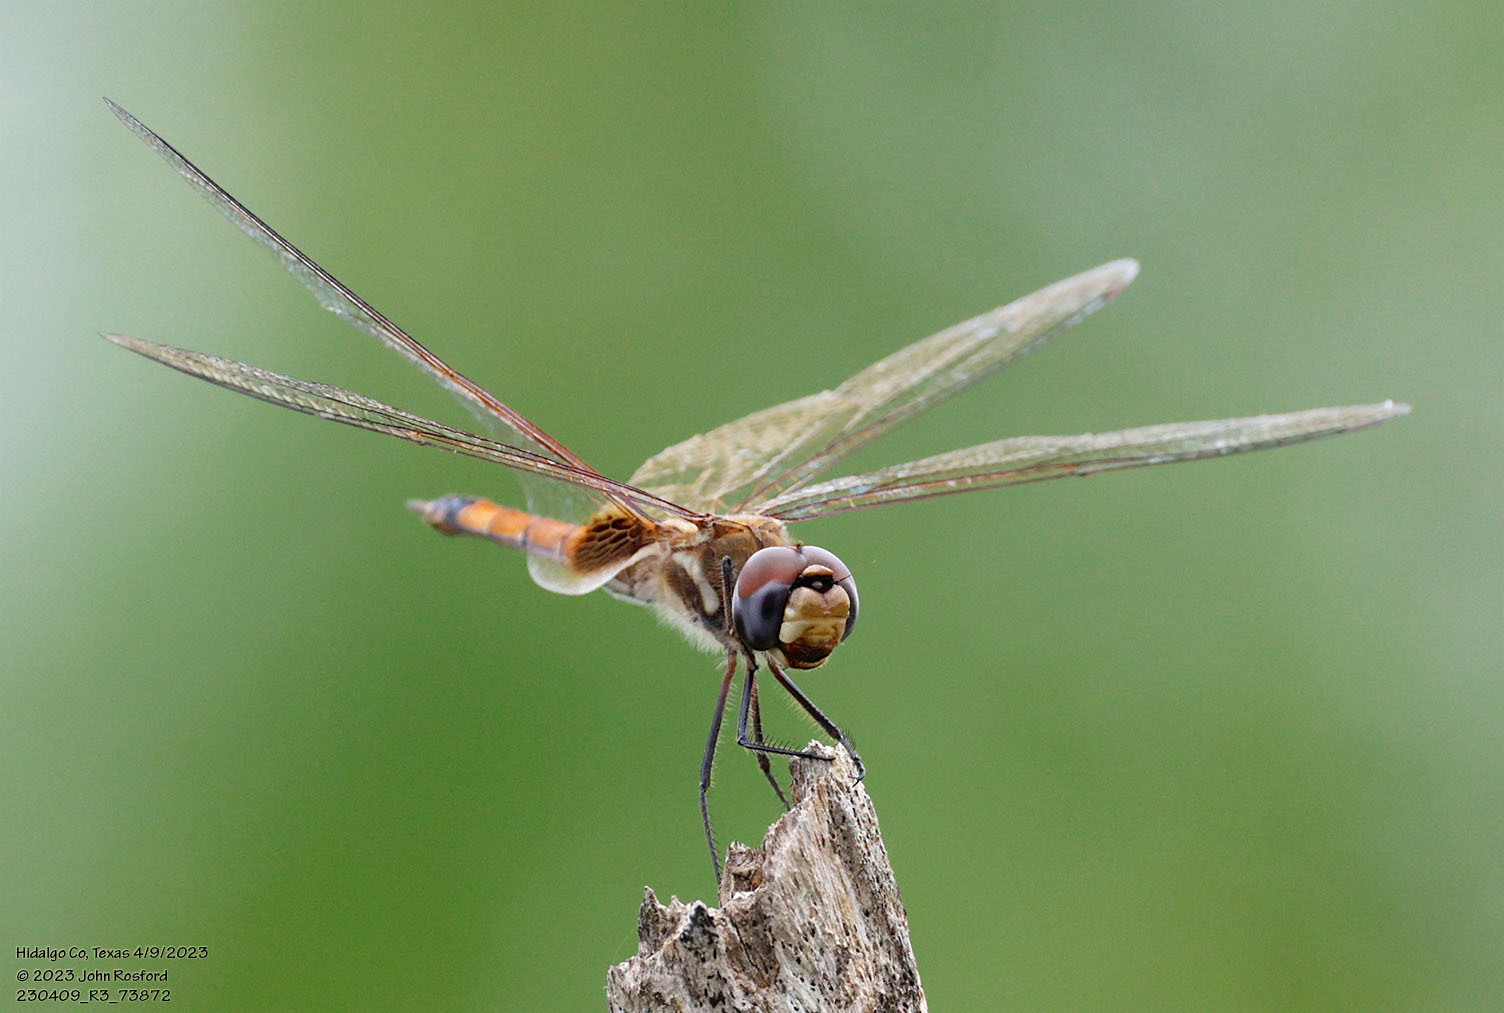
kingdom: Animalia
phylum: Arthropoda
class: Insecta
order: Odonata
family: Libellulidae
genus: Tramea
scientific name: Tramea darwini
